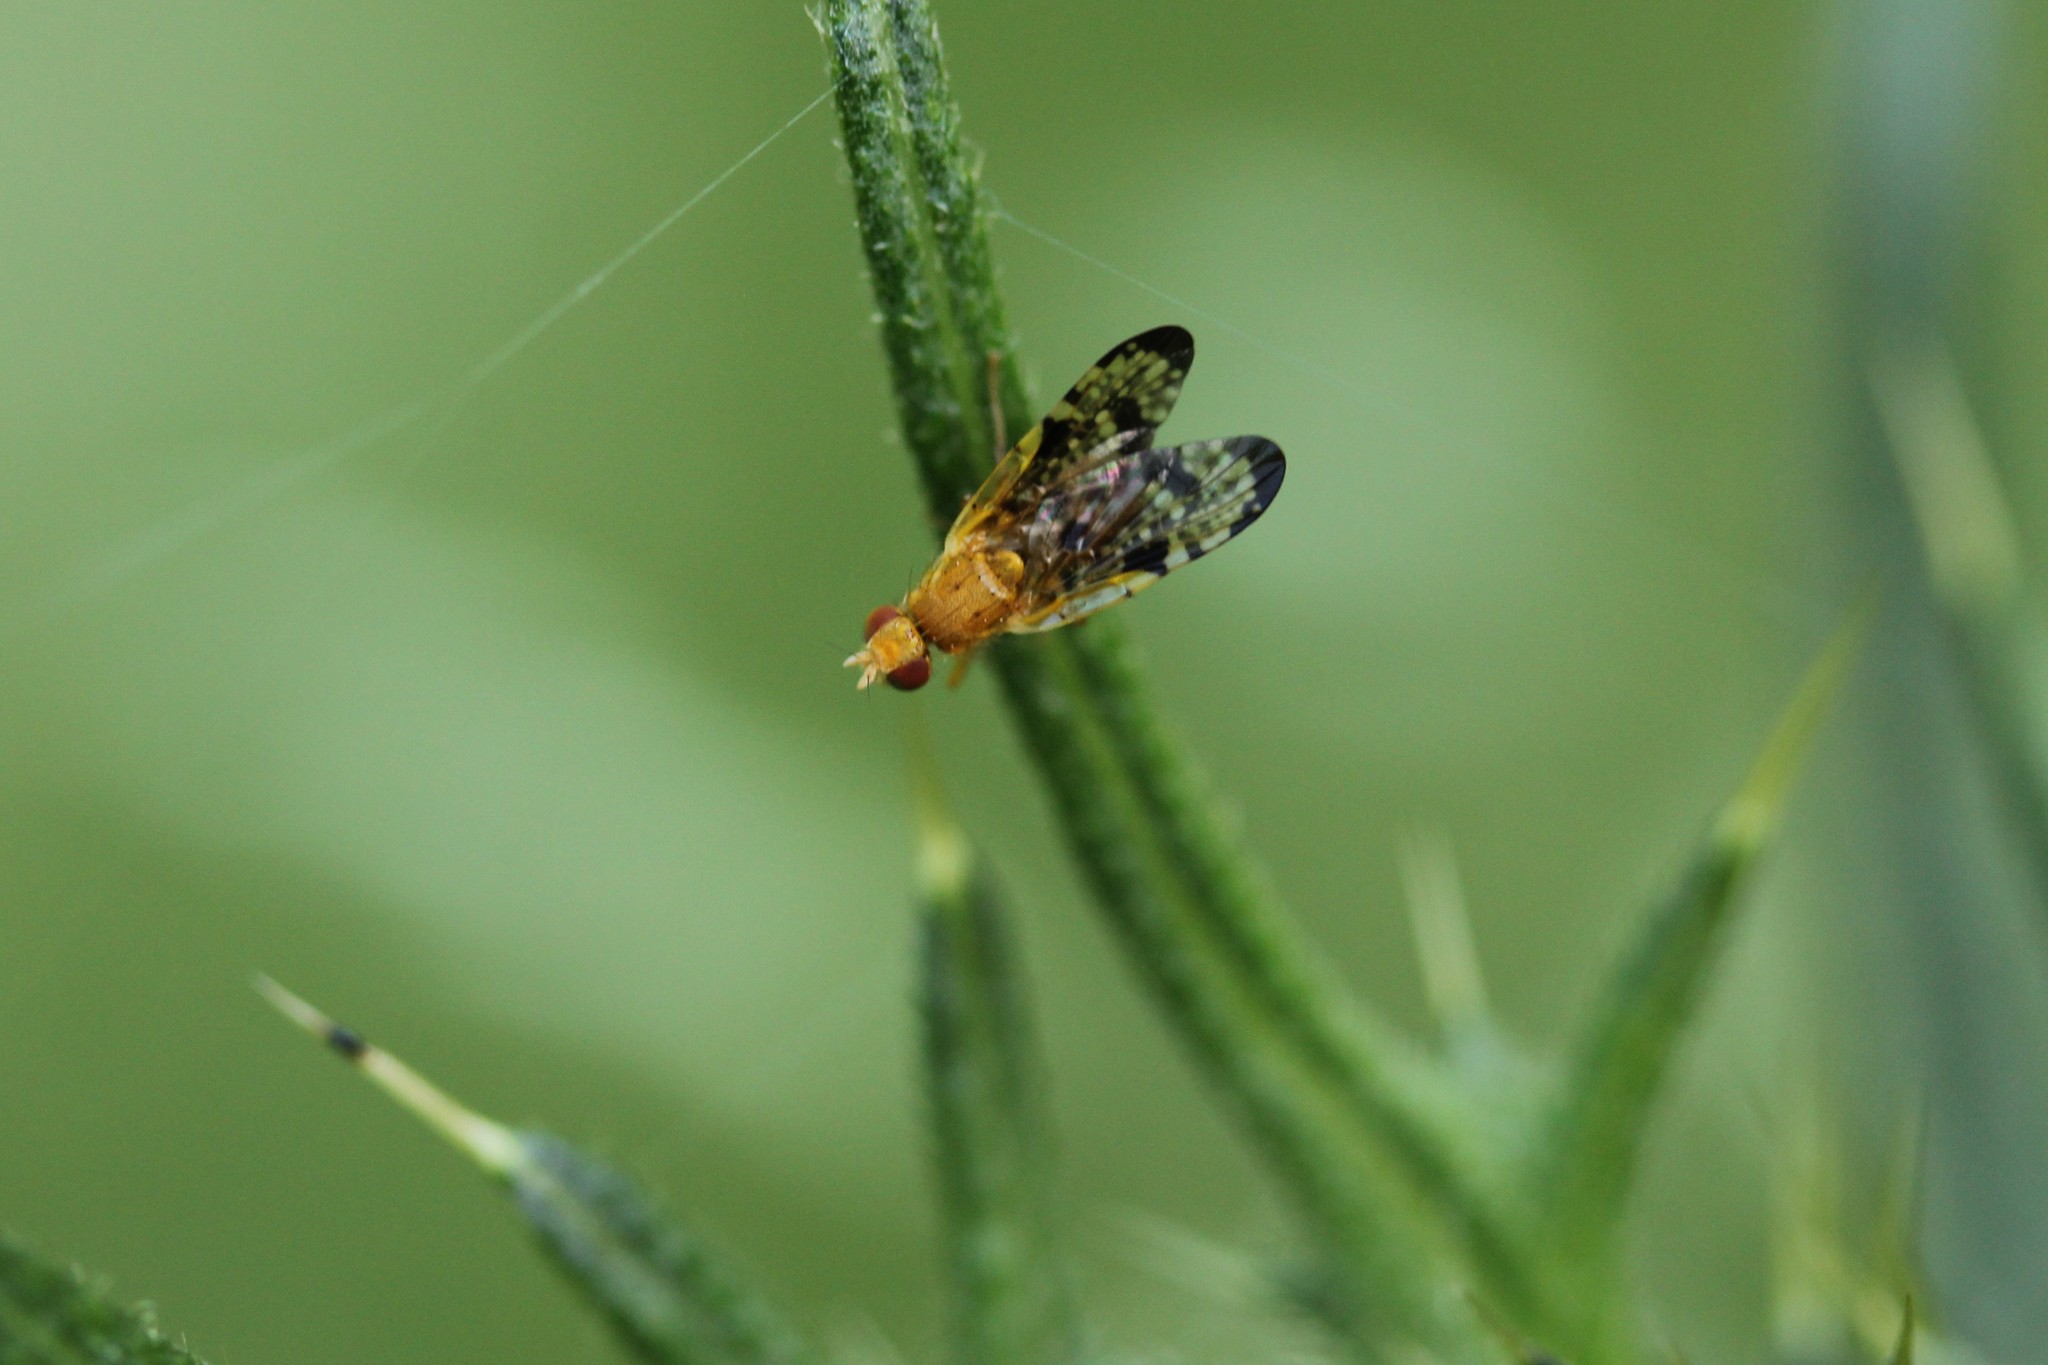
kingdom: Animalia
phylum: Arthropoda
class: Insecta
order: Diptera
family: Tephritidae
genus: Xyphosia
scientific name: Xyphosia miliaria
